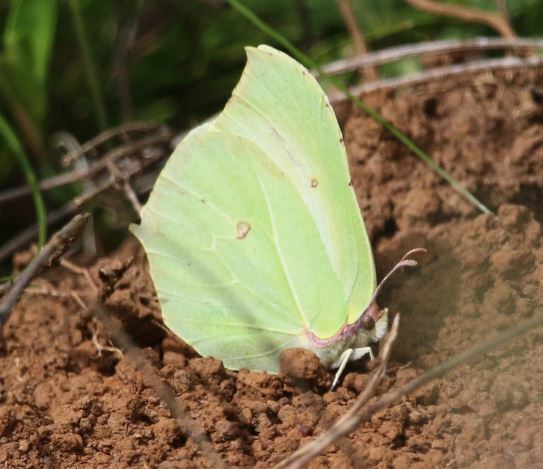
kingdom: Animalia
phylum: Arthropoda
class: Insecta
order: Lepidoptera
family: Pieridae
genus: Gonepteryx
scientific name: Gonepteryx rhamni
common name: Brimstone
